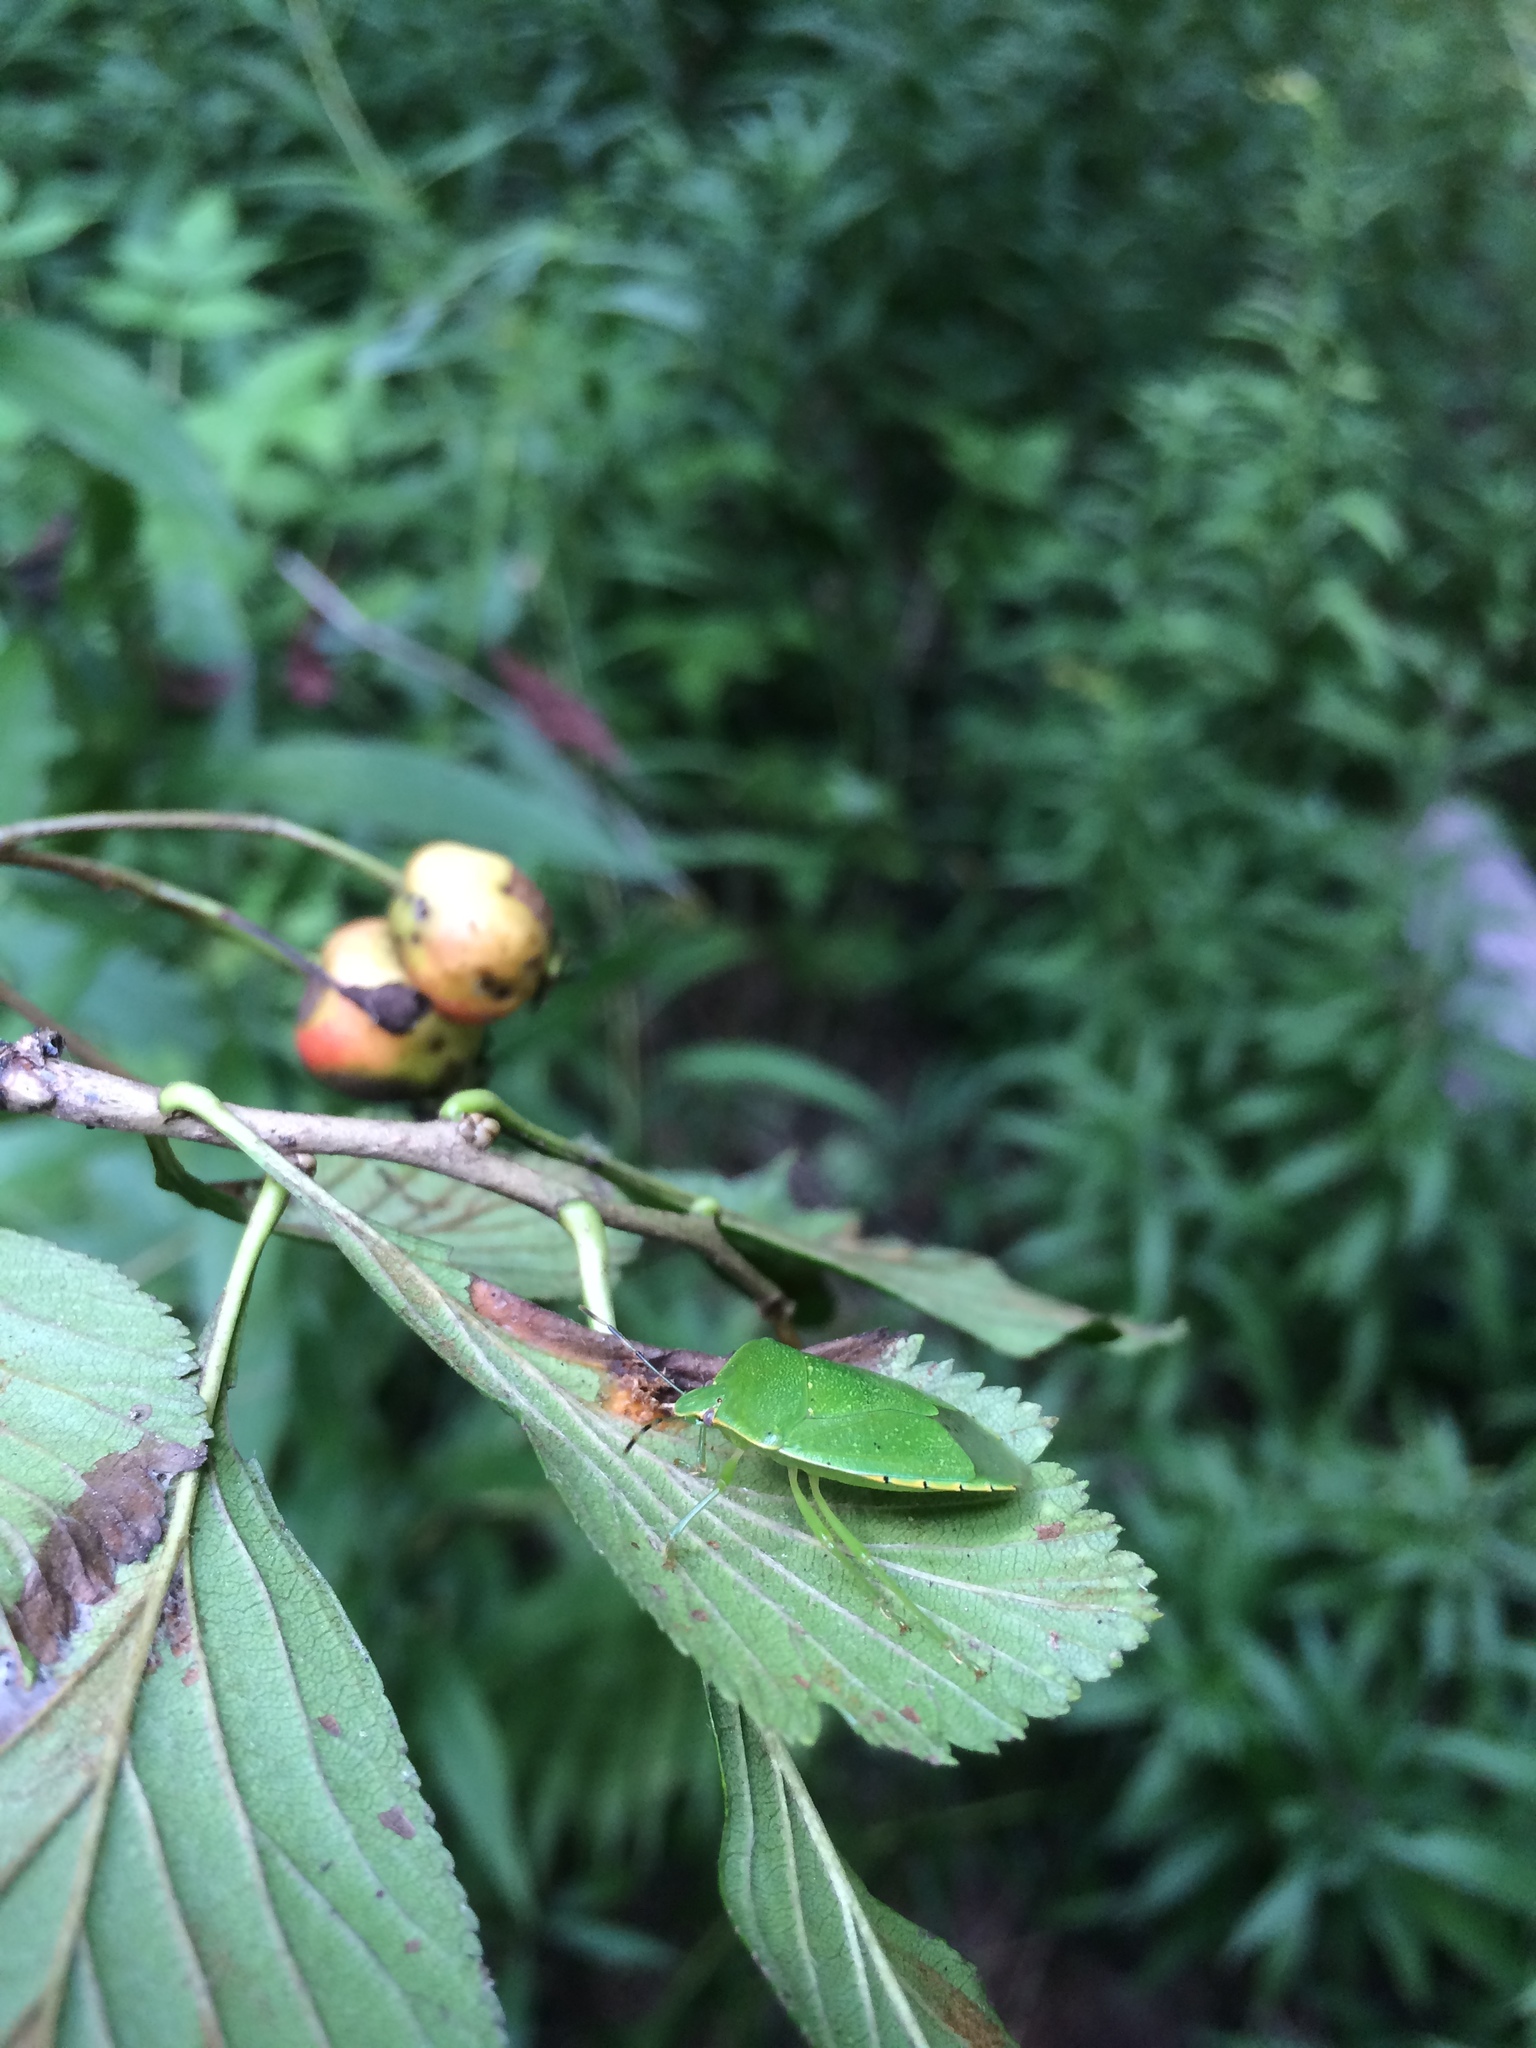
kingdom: Animalia
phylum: Arthropoda
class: Insecta
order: Hemiptera
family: Pentatomidae
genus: Chinavia
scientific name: Chinavia hilaris
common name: Green stink bug
